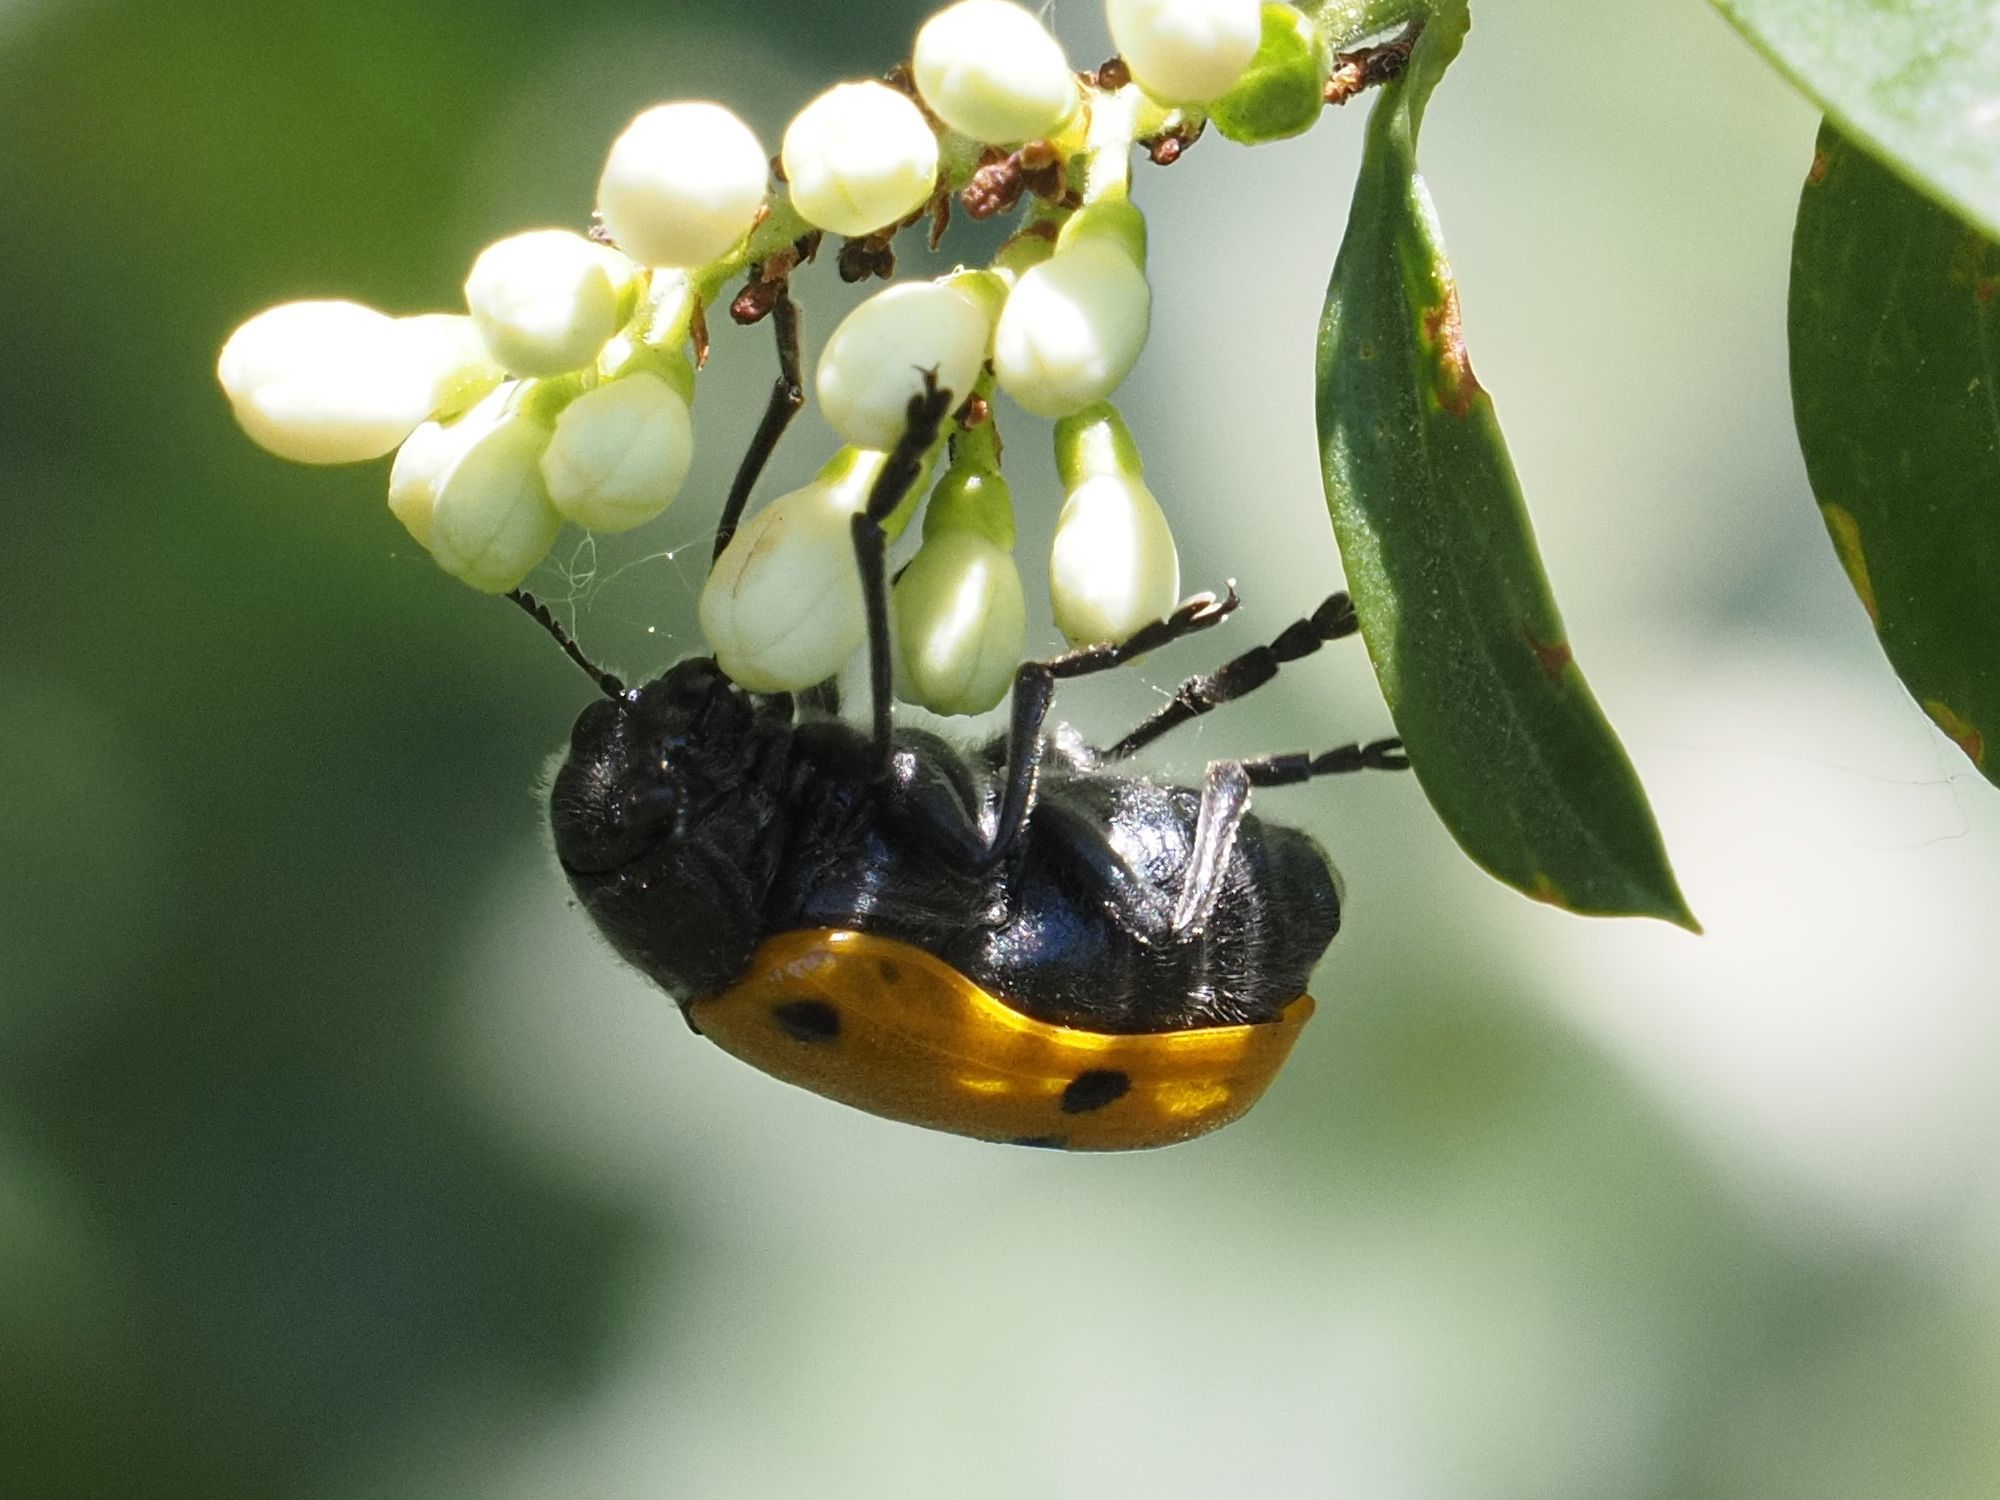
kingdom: Animalia
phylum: Arthropoda
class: Insecta
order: Coleoptera
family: Chrysomelidae
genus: Lachnaia
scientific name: Lachnaia sexpunctata
